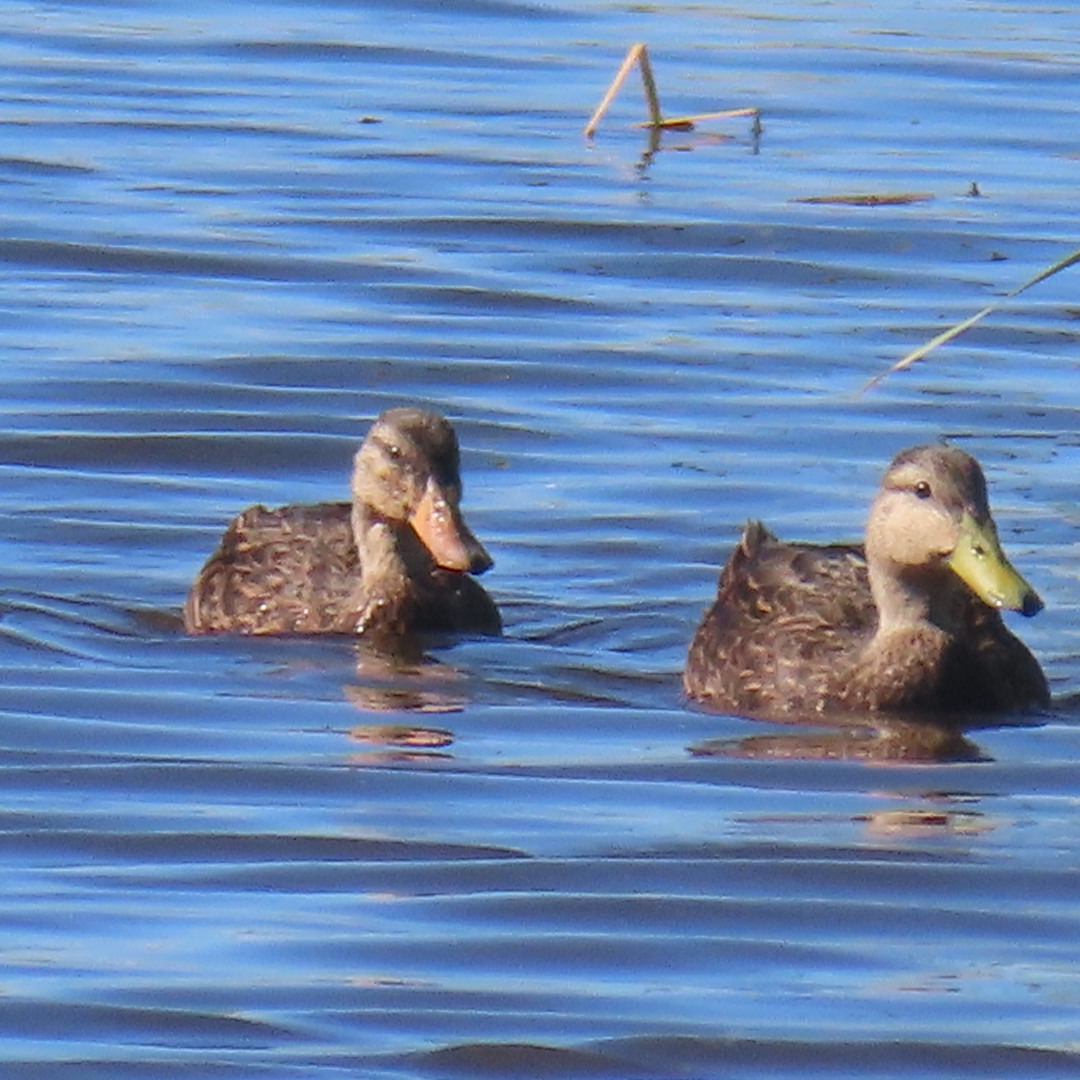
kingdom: Animalia
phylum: Chordata
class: Aves
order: Anseriformes
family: Anatidae
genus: Anas
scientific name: Anas fulvigula
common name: Mottled duck
